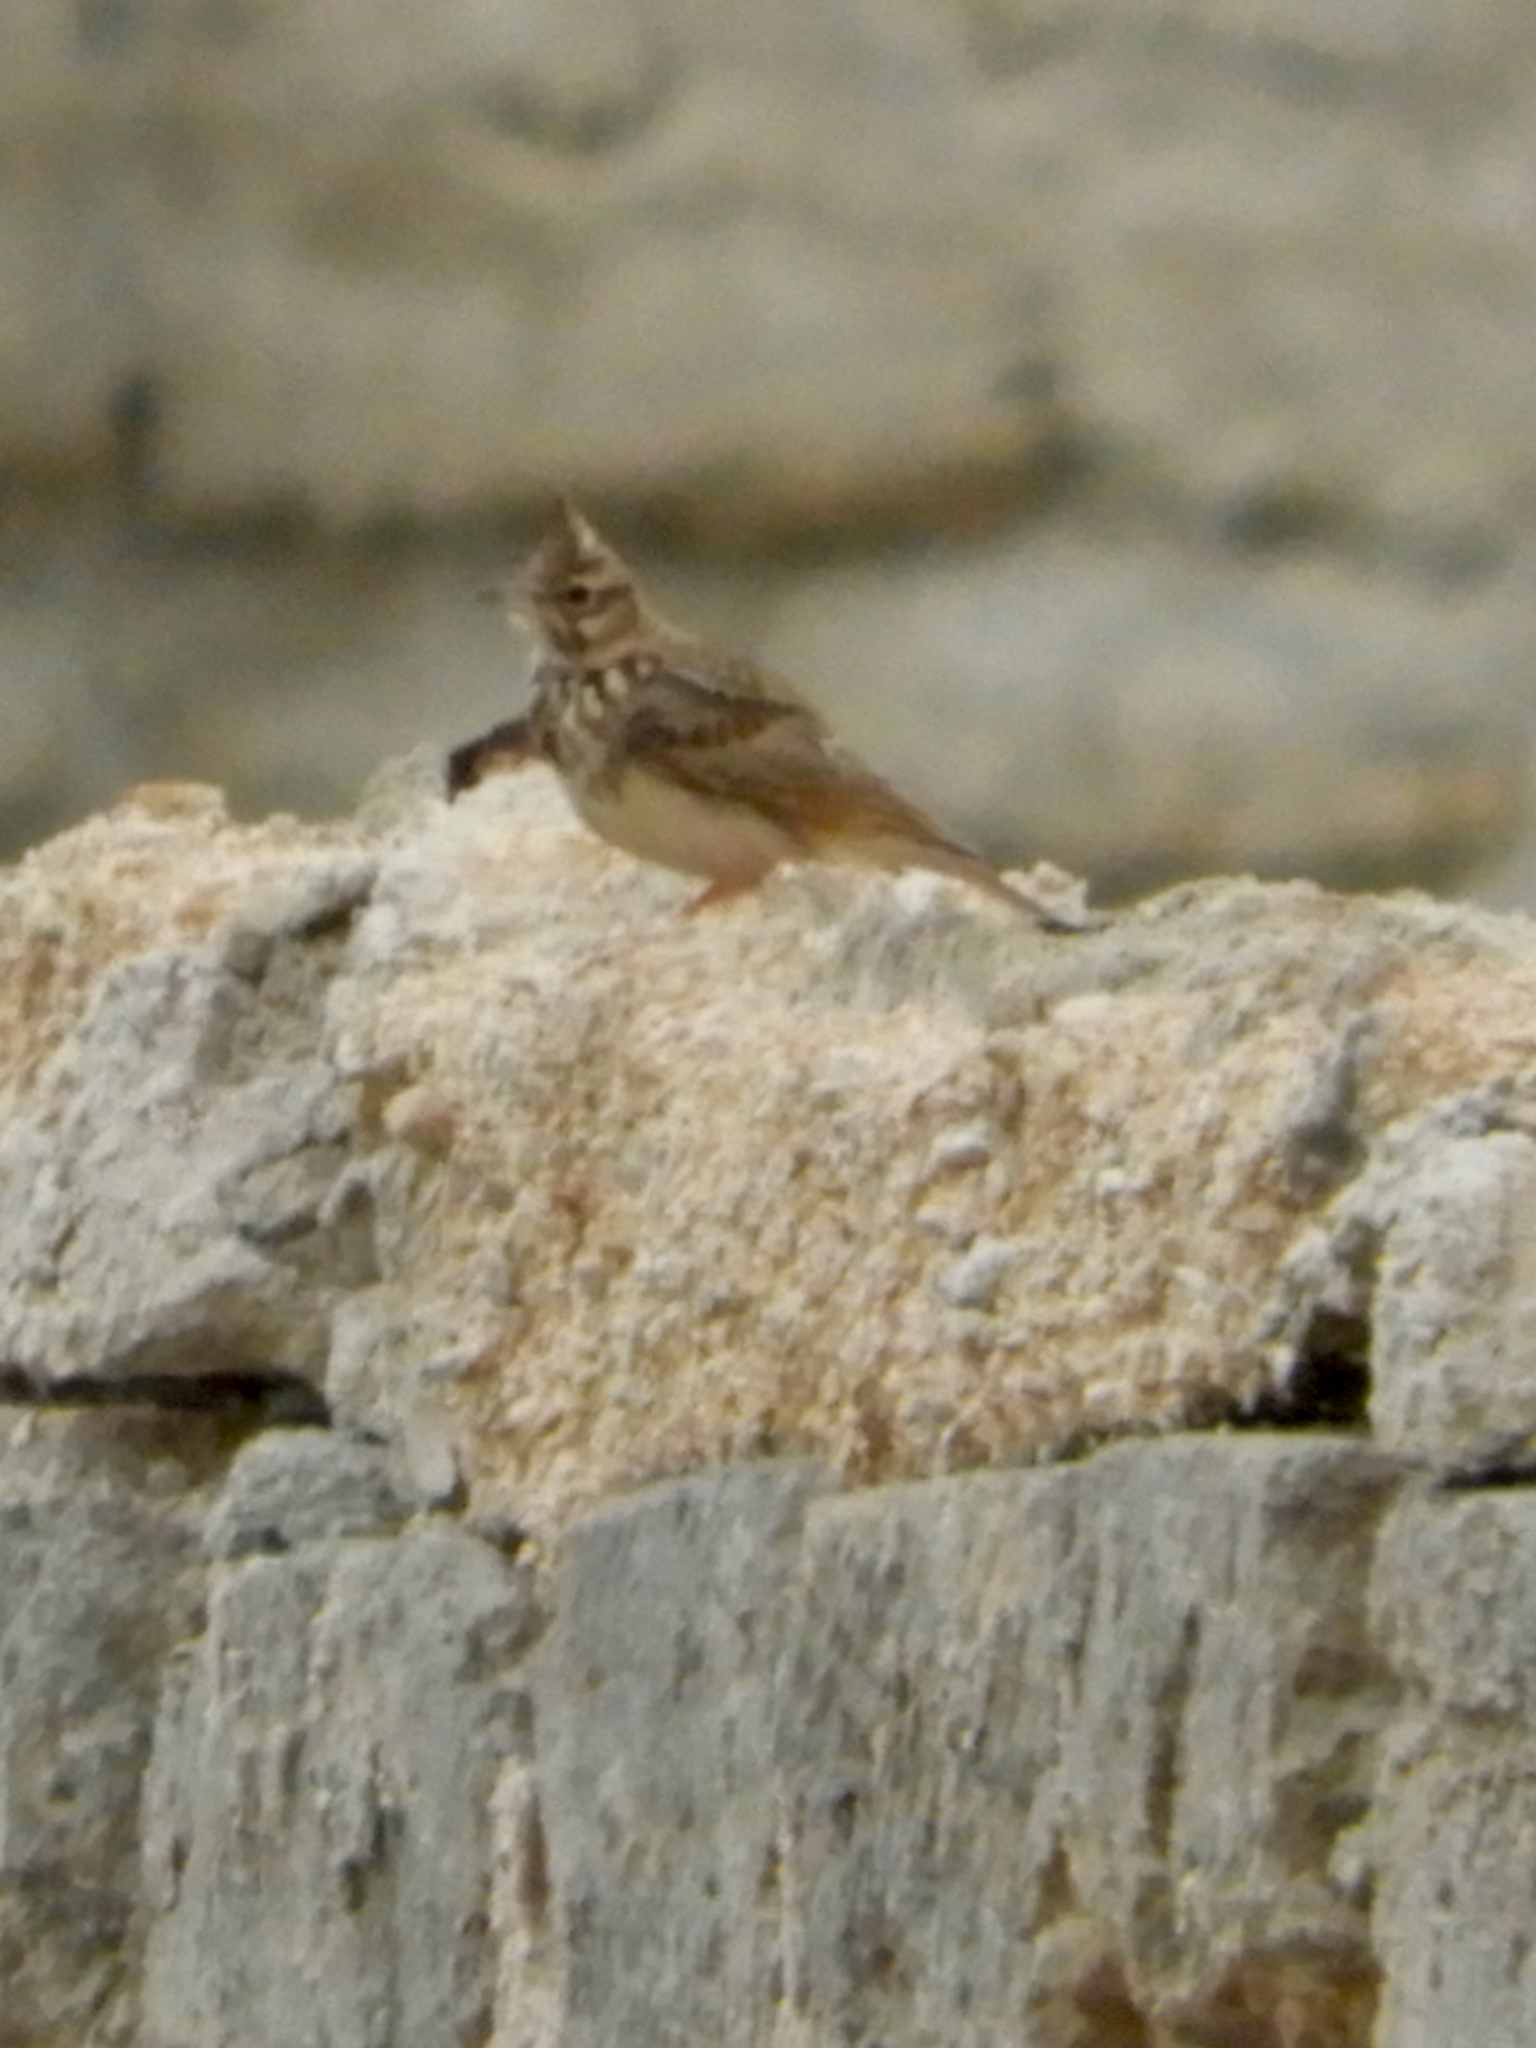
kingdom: Animalia
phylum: Chordata
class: Aves
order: Passeriformes
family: Alaudidae
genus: Galerida
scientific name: Galerida cristata
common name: Crested lark
